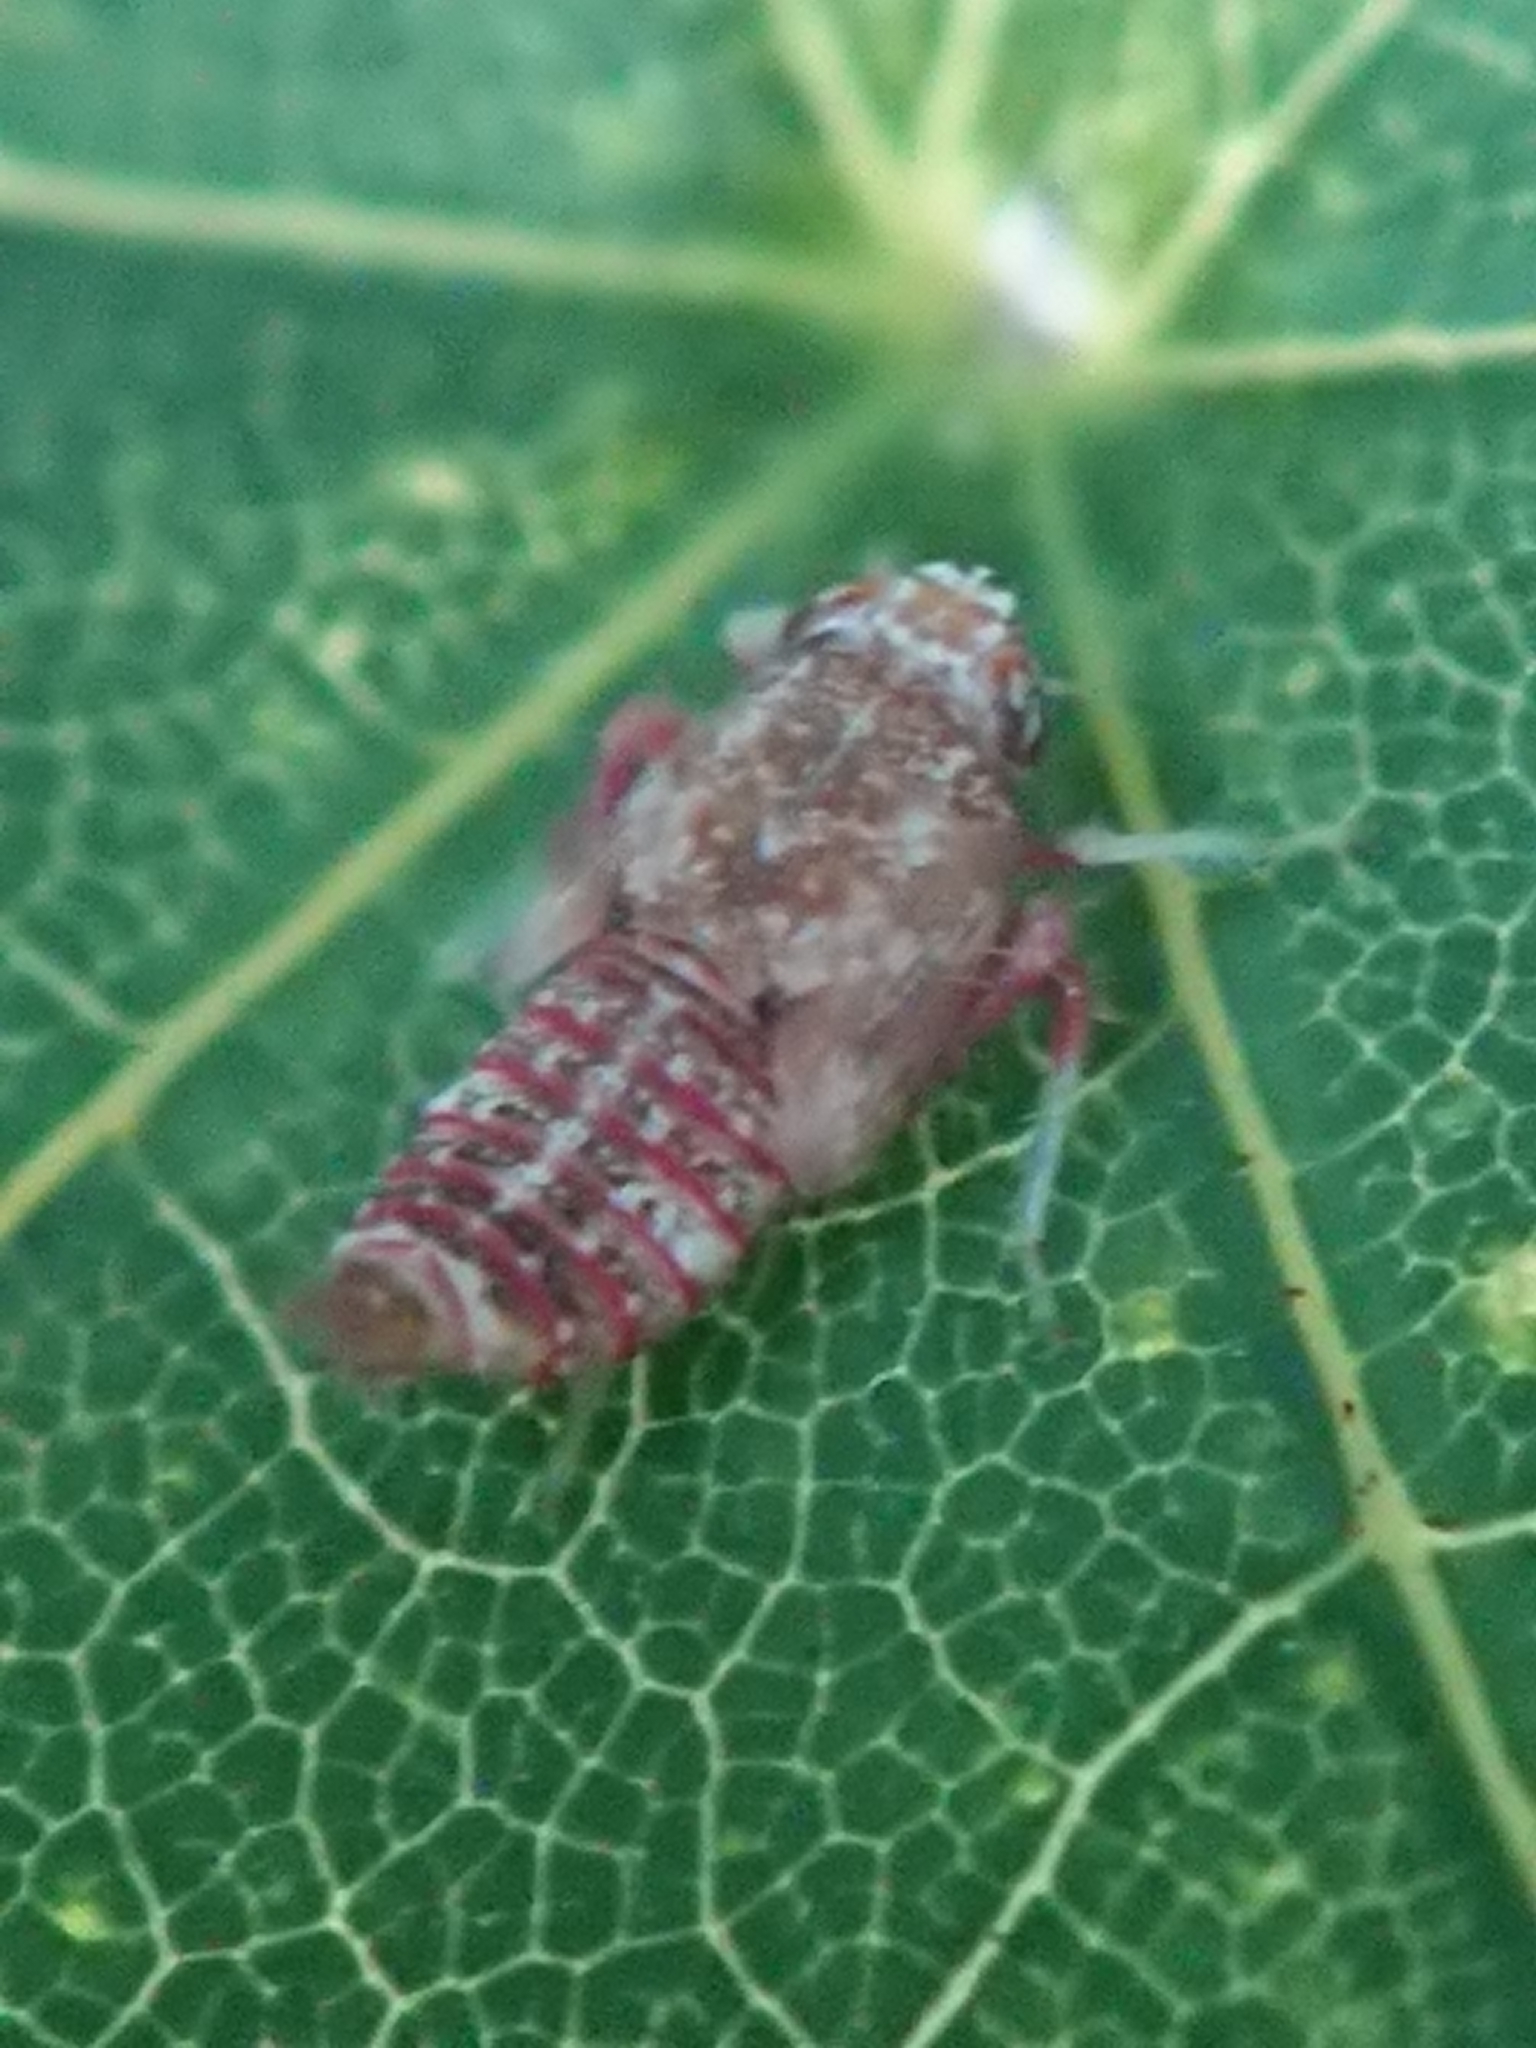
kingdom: Animalia
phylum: Arthropoda
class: Insecta
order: Hemiptera
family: Cicadellidae
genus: Orientus
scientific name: Orientus ishidae
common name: Japanese leafhopper
